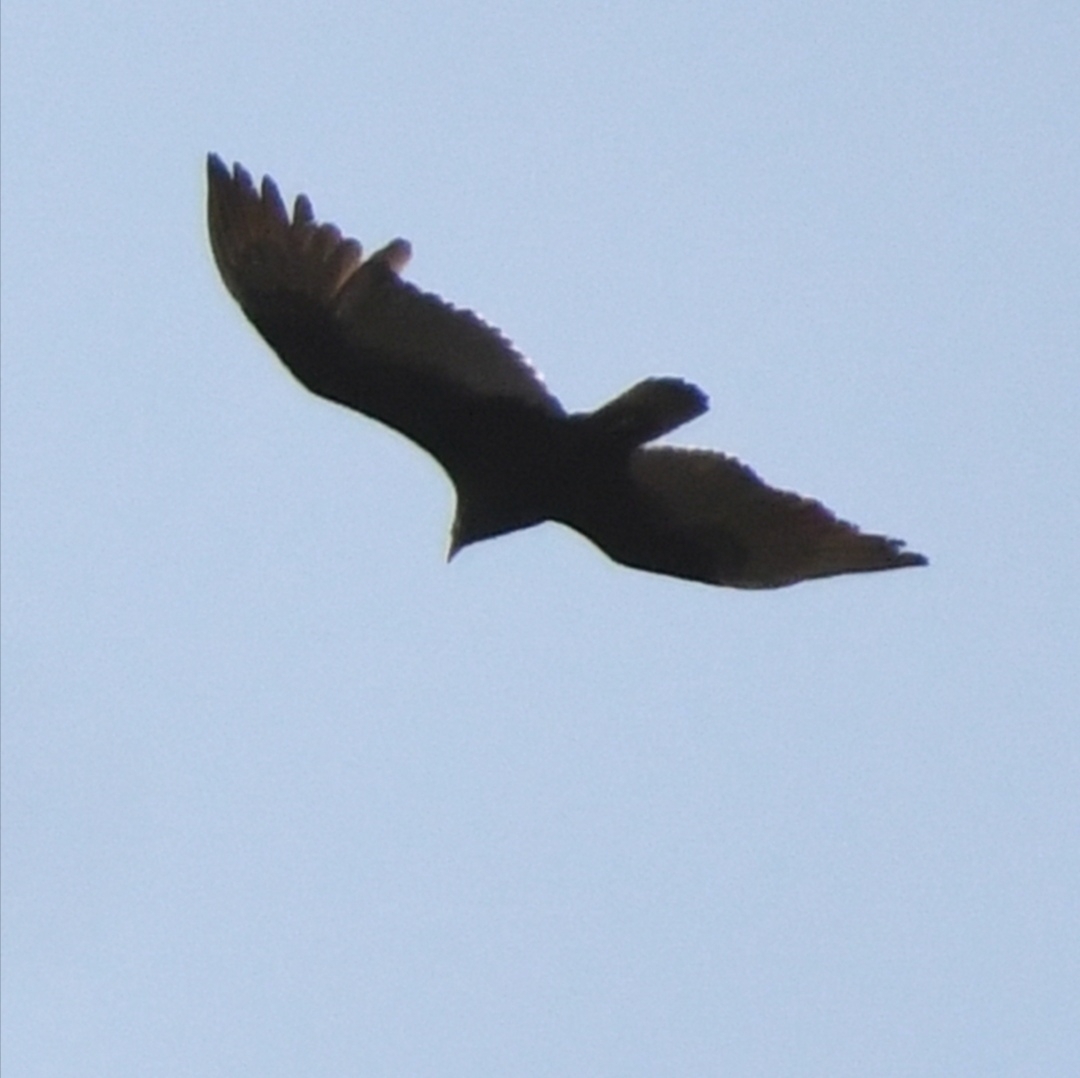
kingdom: Animalia
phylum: Chordata
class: Aves
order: Accipitriformes
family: Cathartidae
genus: Cathartes
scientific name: Cathartes aura
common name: Turkey vulture
